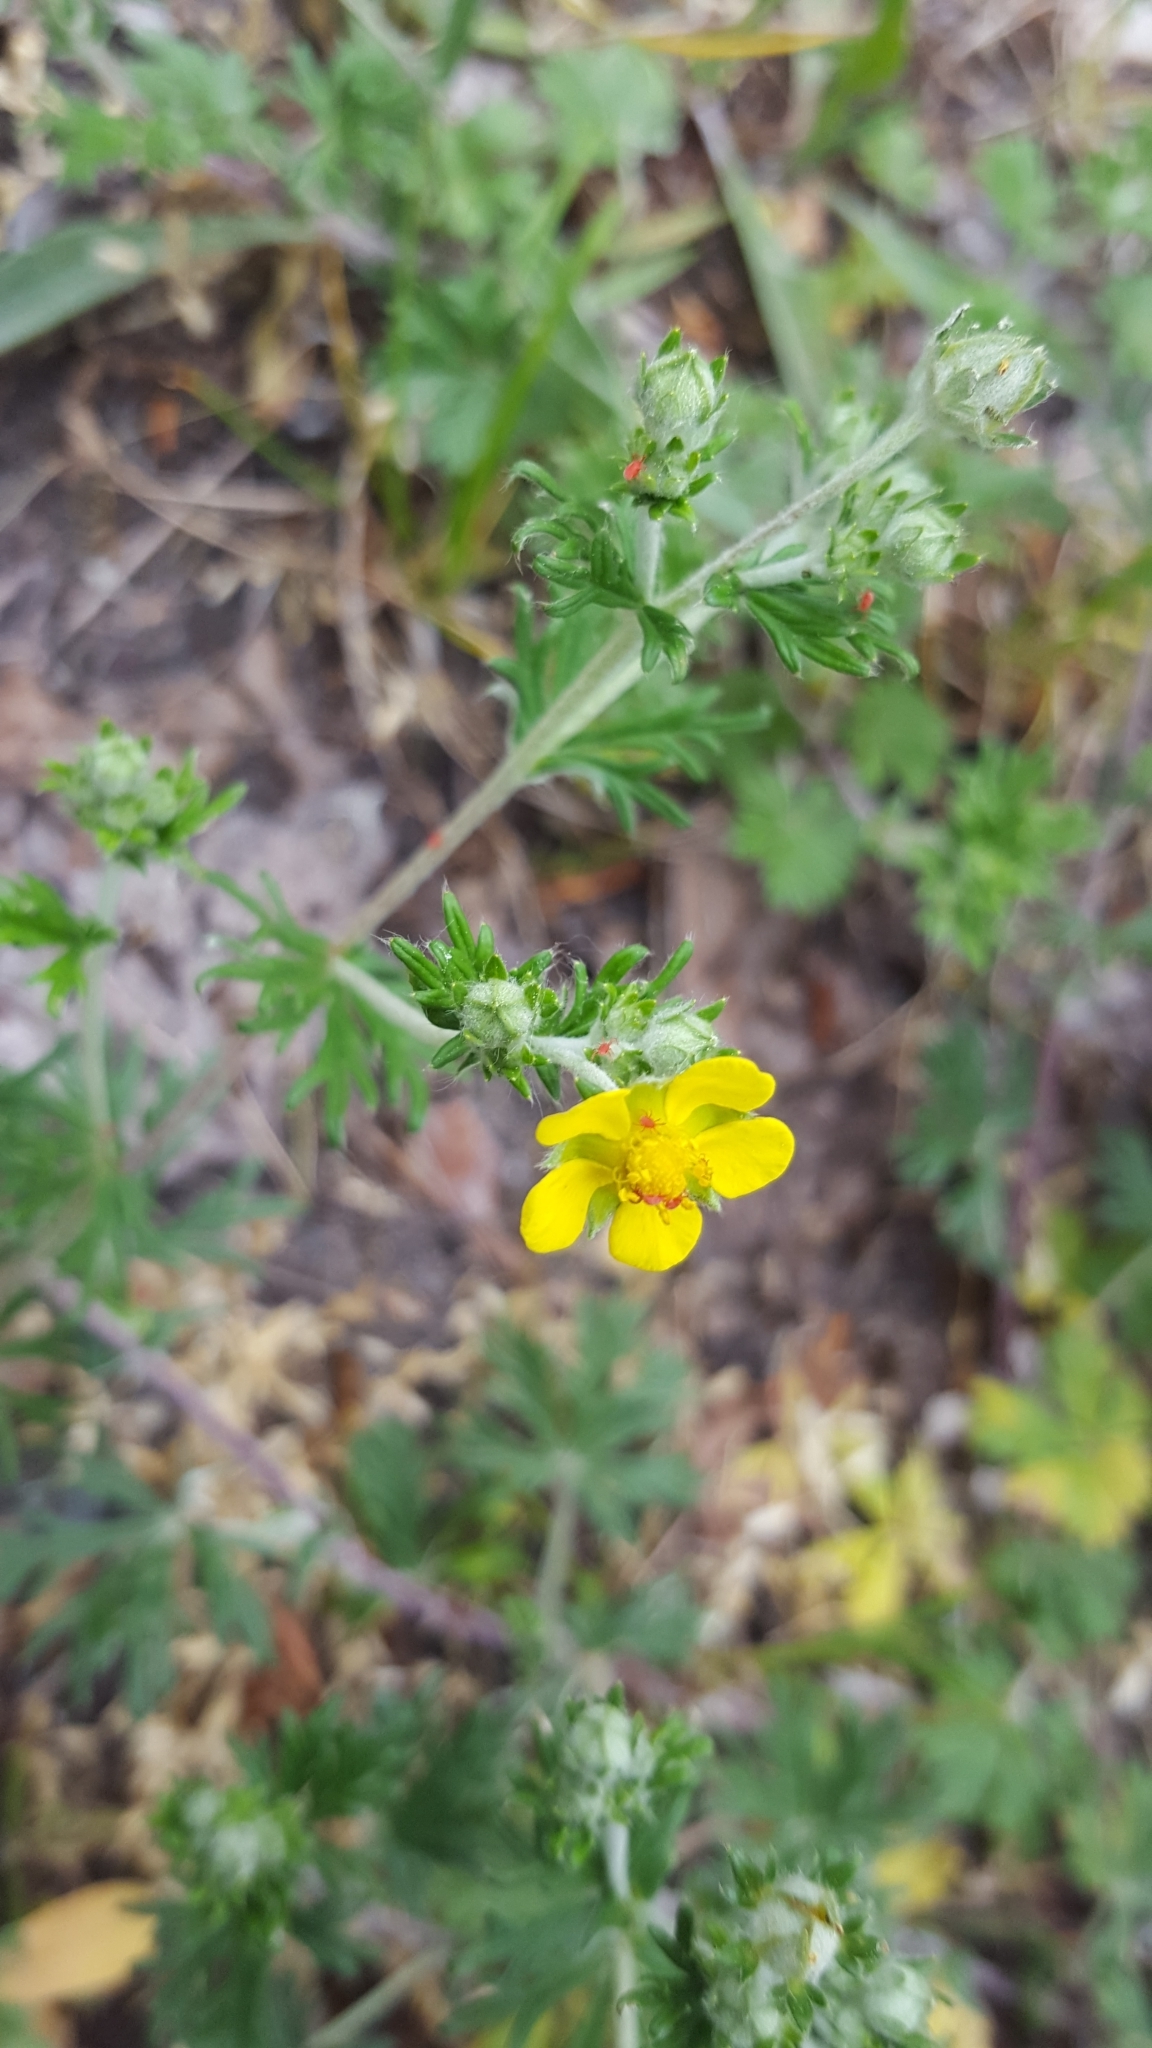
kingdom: Plantae
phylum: Tracheophyta
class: Magnoliopsida
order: Rosales
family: Rosaceae
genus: Potentilla
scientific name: Potentilla argentea
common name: Hoary cinquefoil
